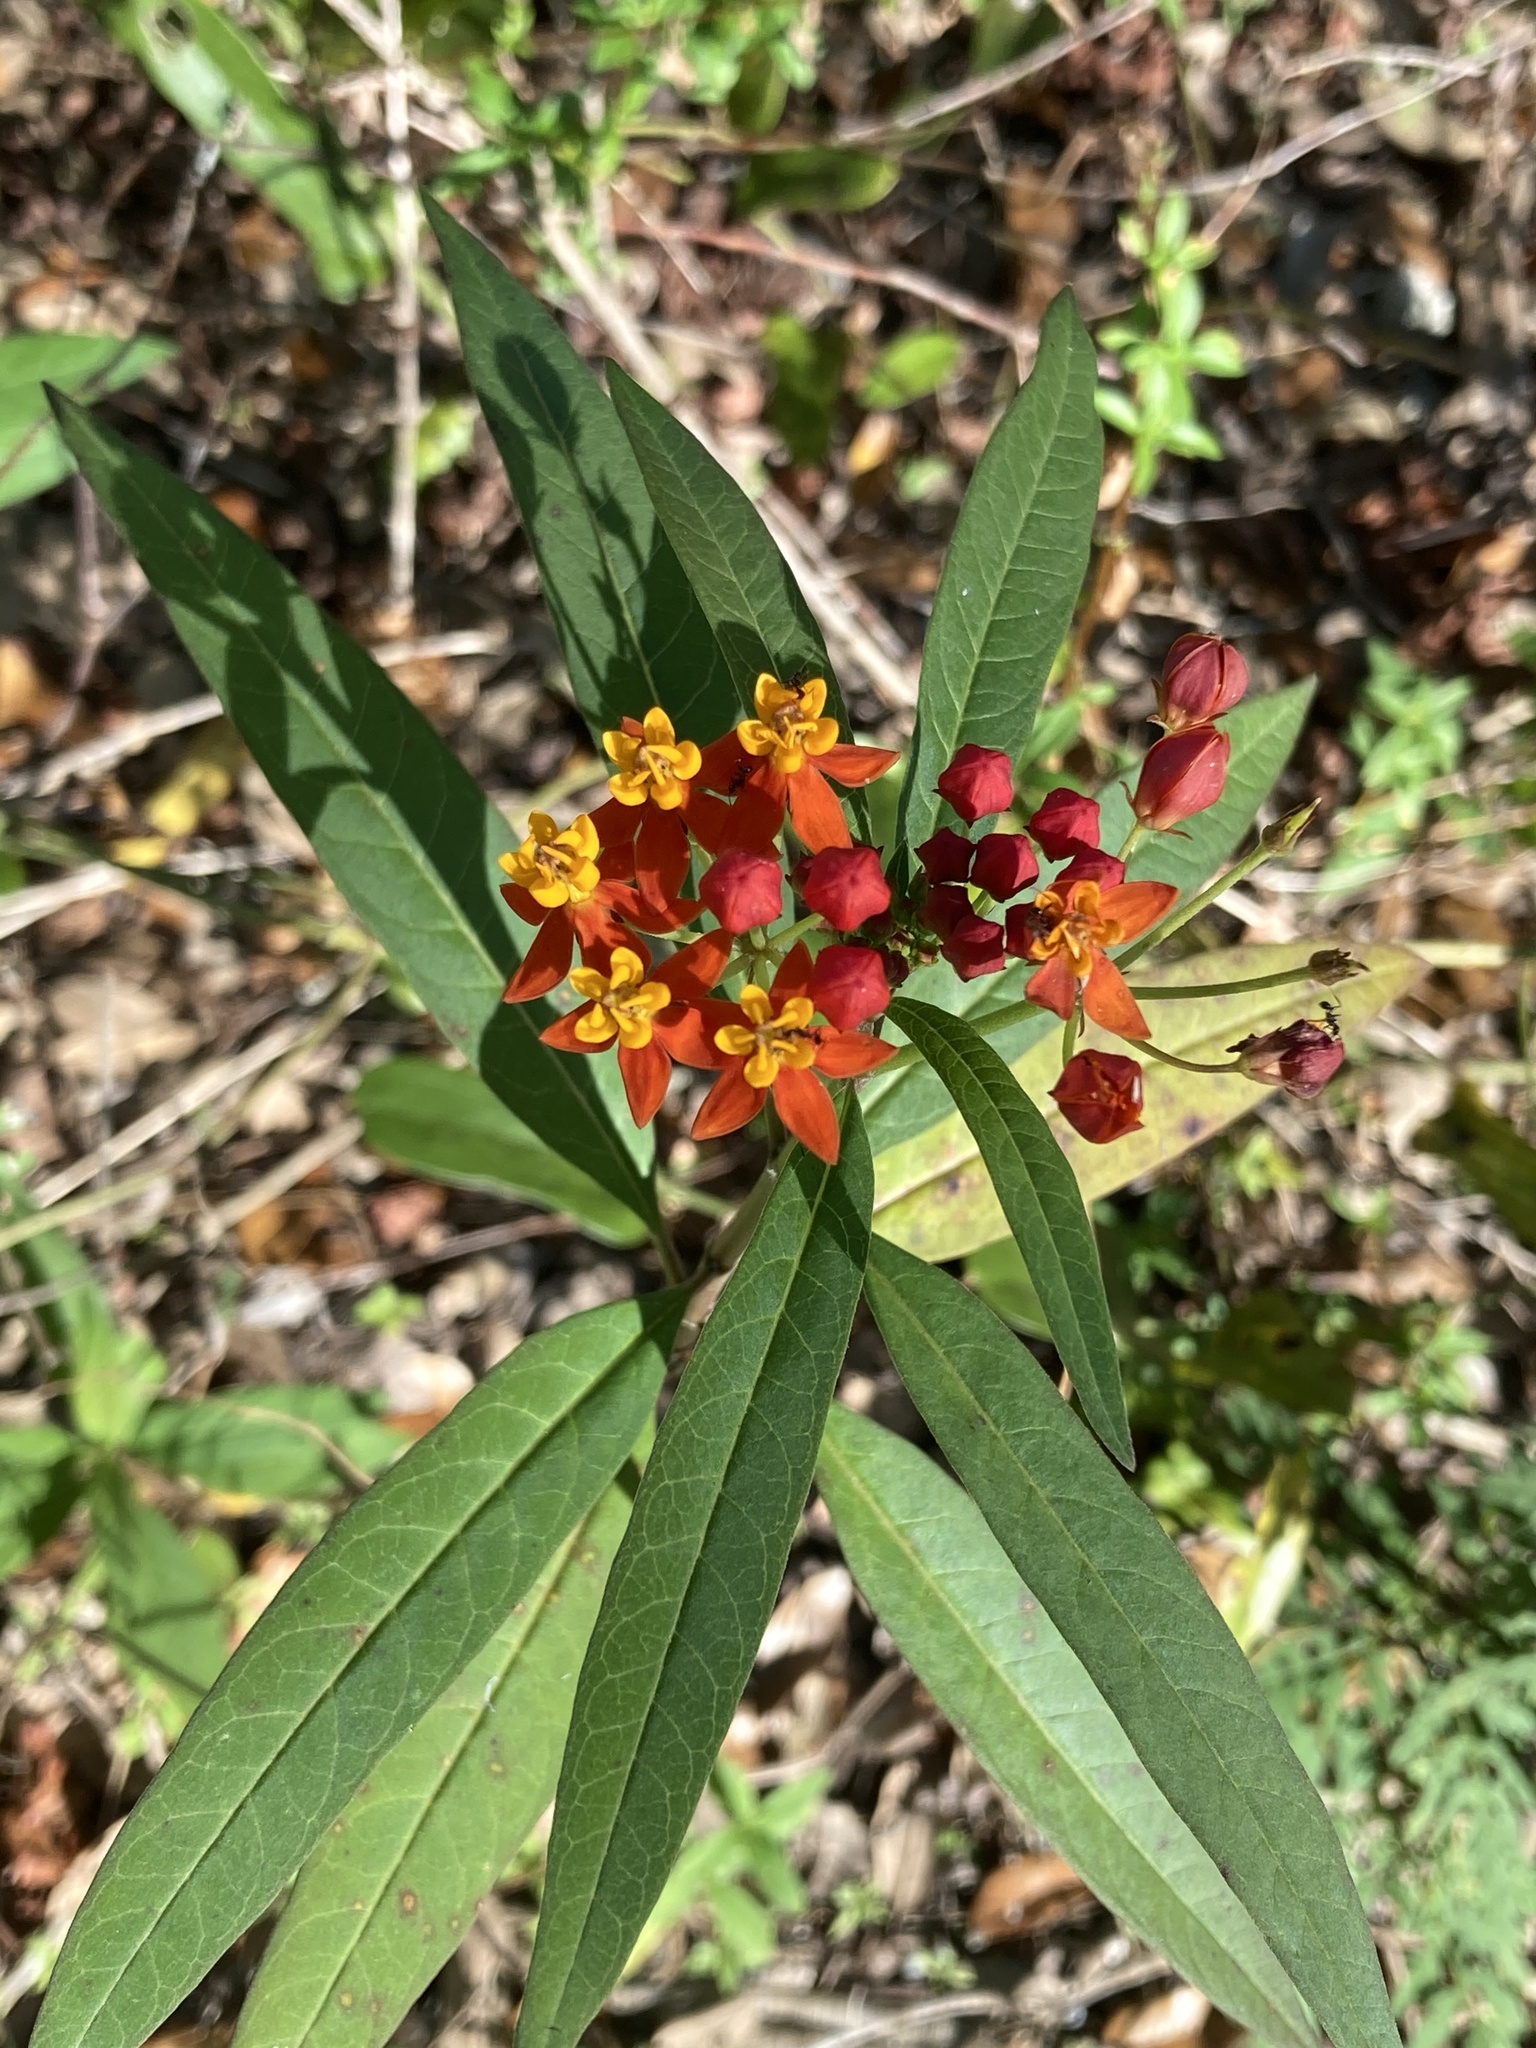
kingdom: Plantae
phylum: Tracheophyta
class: Magnoliopsida
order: Gentianales
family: Apocynaceae
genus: Asclepias
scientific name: Asclepias curassavica
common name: Bloodflower
